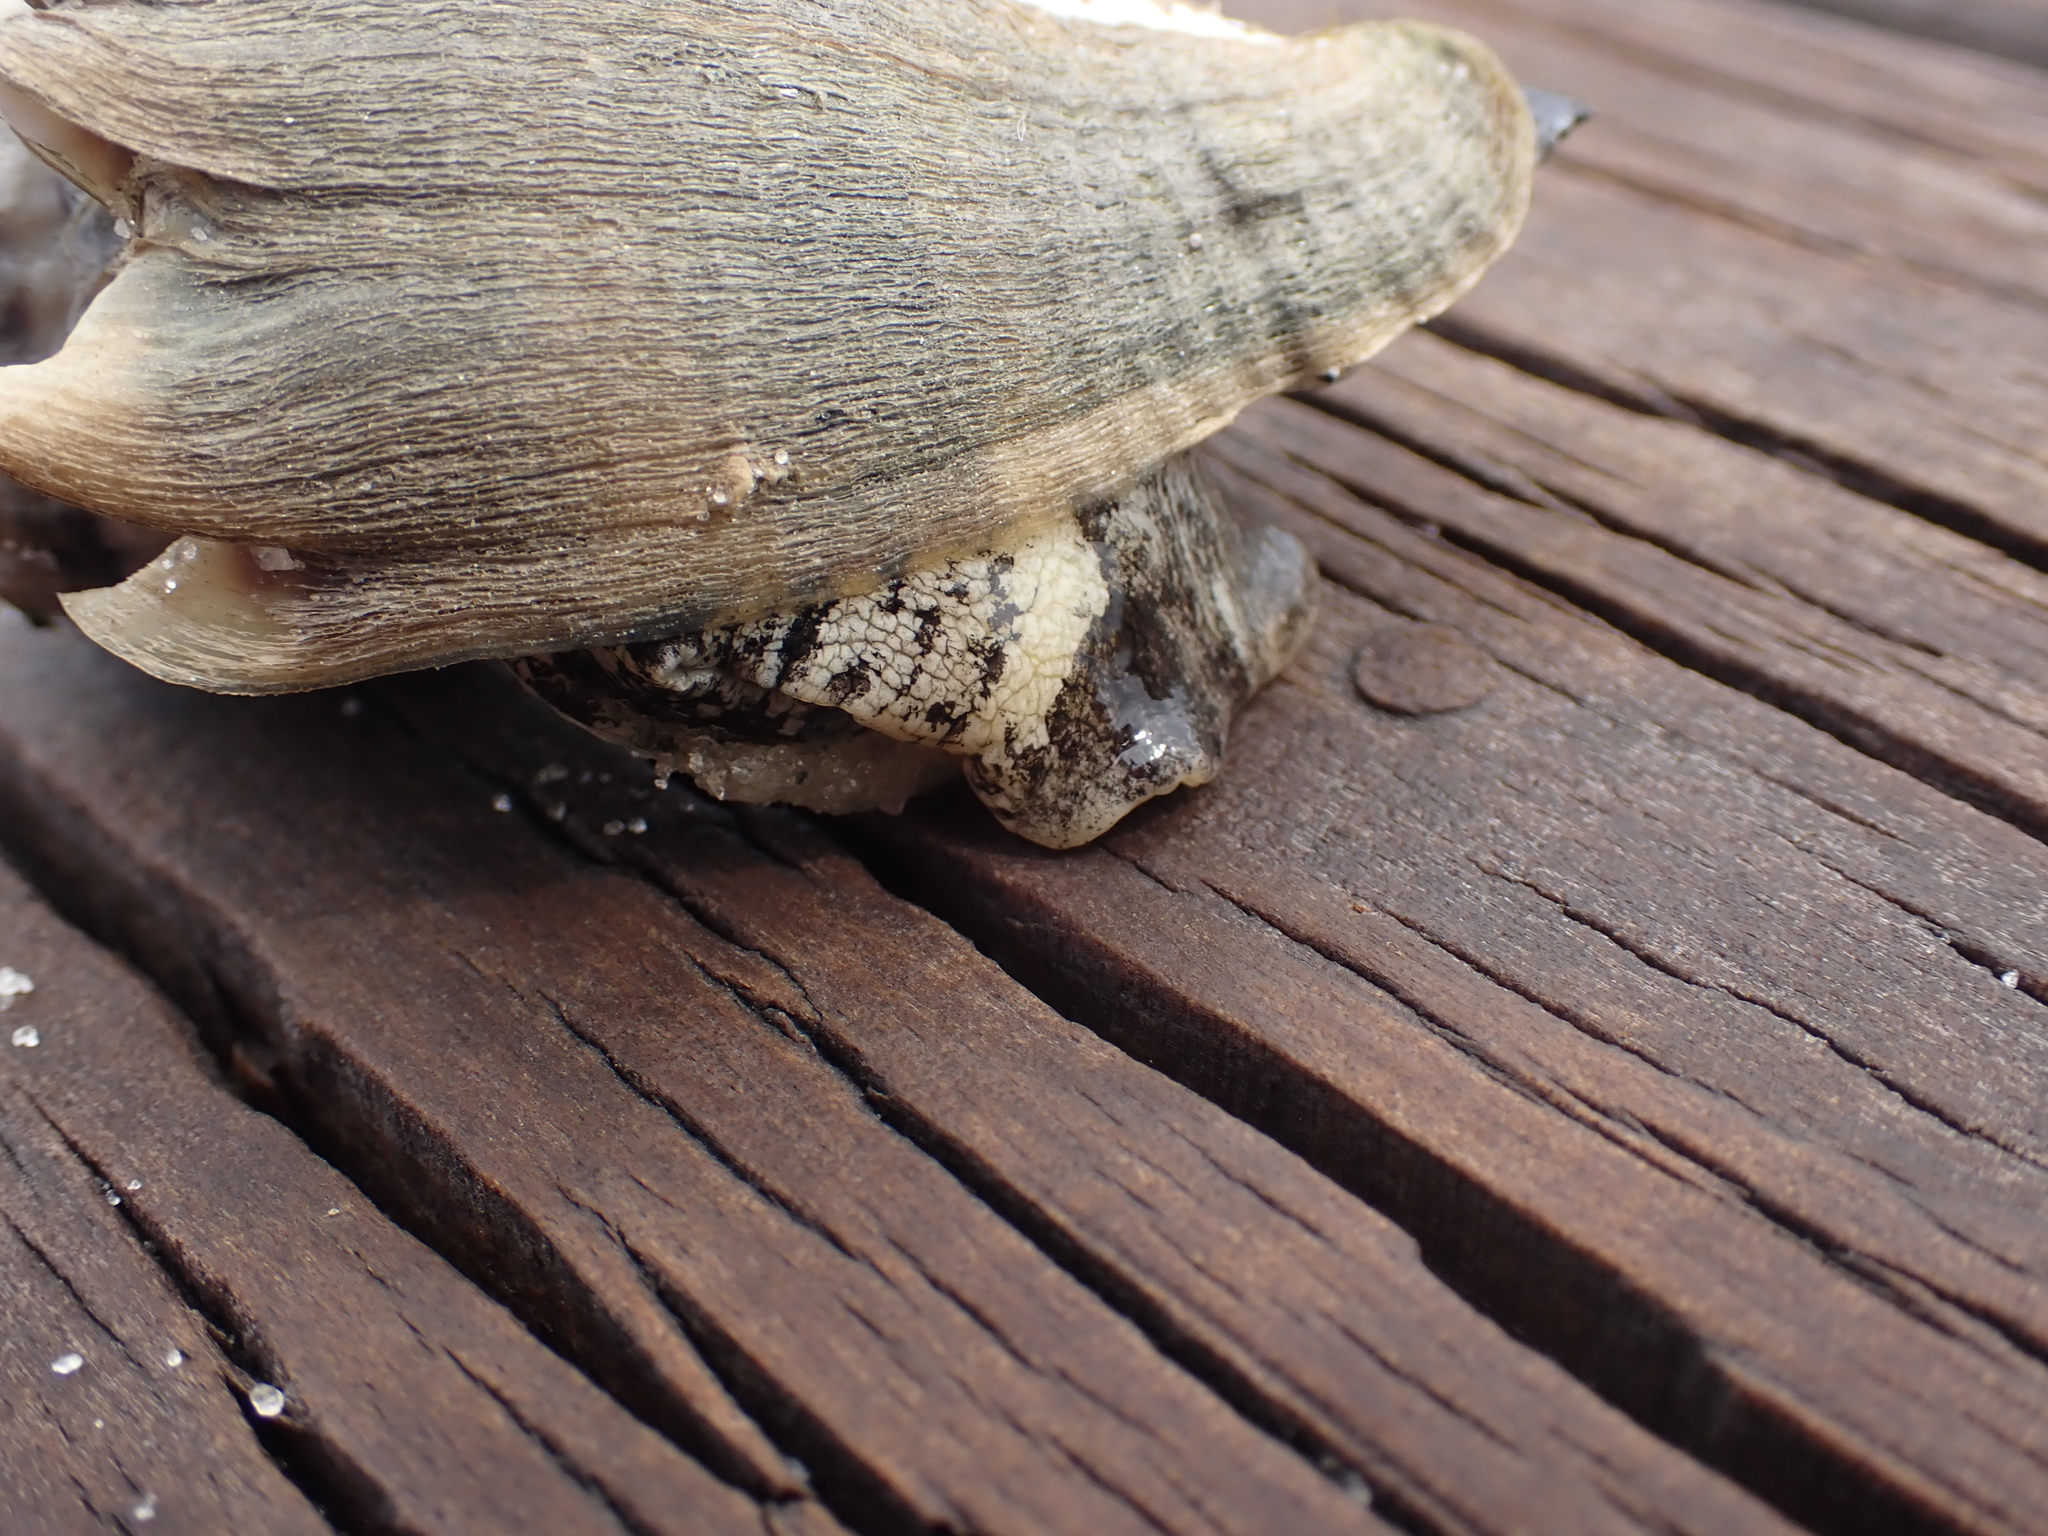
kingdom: Animalia
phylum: Mollusca
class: Gastropoda
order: Neogastropoda
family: Melongenidae
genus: Melongena
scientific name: Melongena corona
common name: American crown conch
